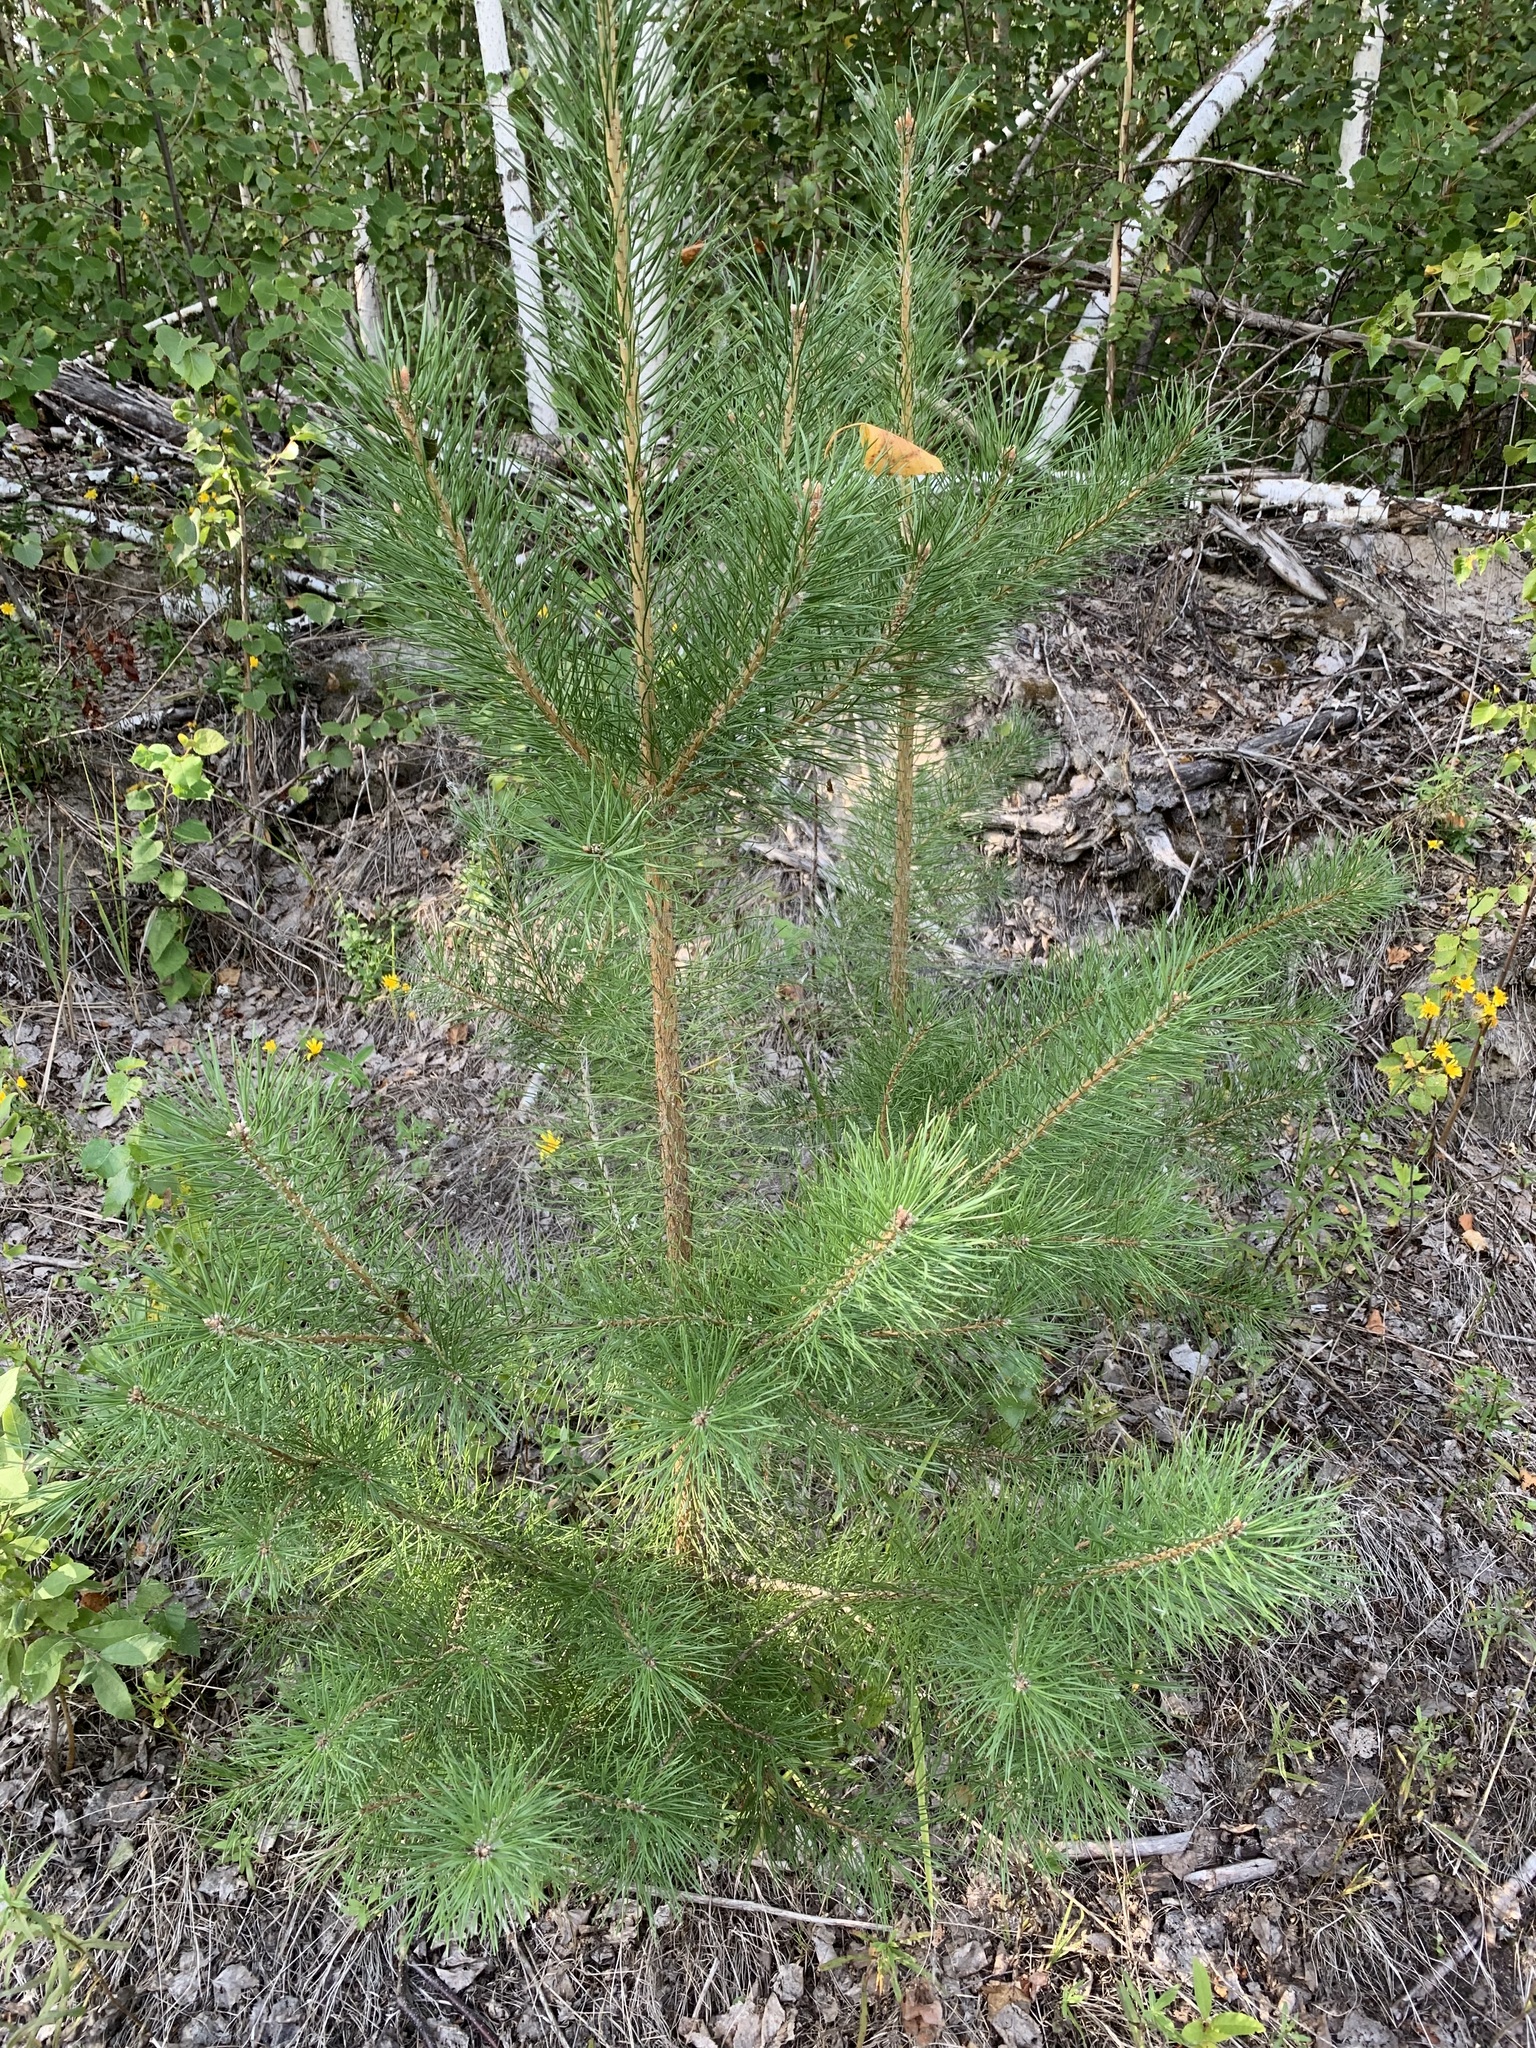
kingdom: Plantae
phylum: Tracheophyta
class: Pinopsida
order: Pinales
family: Pinaceae
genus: Pinus
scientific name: Pinus sylvestris
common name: Scots pine
